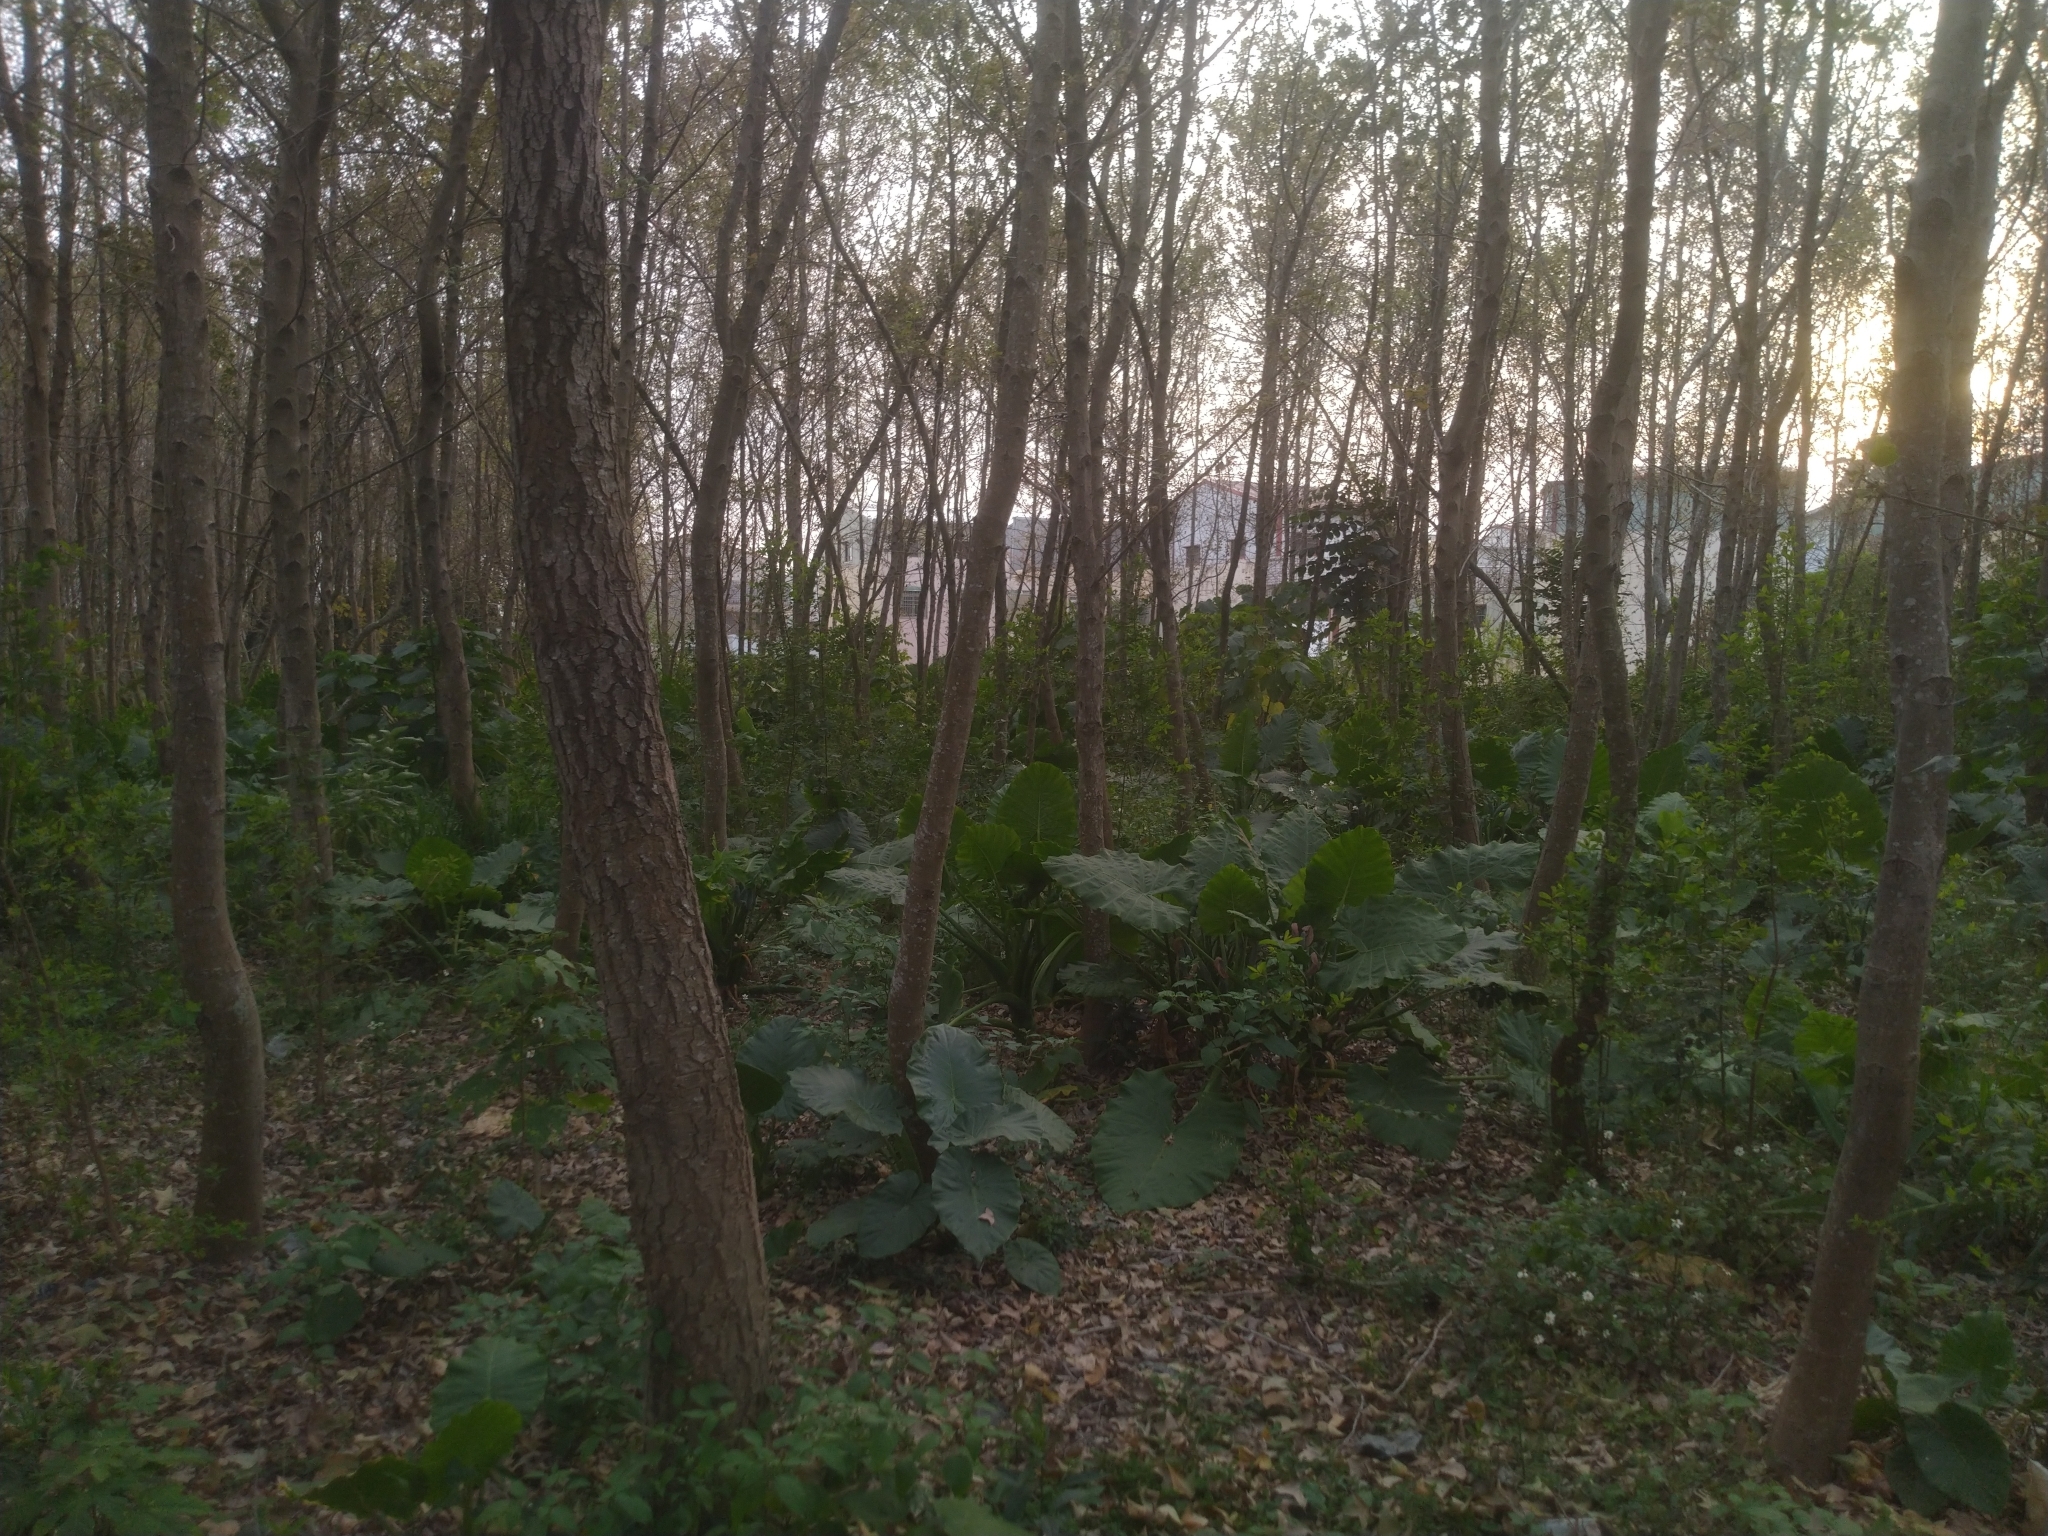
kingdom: Plantae
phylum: Tracheophyta
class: Liliopsida
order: Alismatales
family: Araceae
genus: Alocasia
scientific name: Alocasia odora
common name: Asian taro
